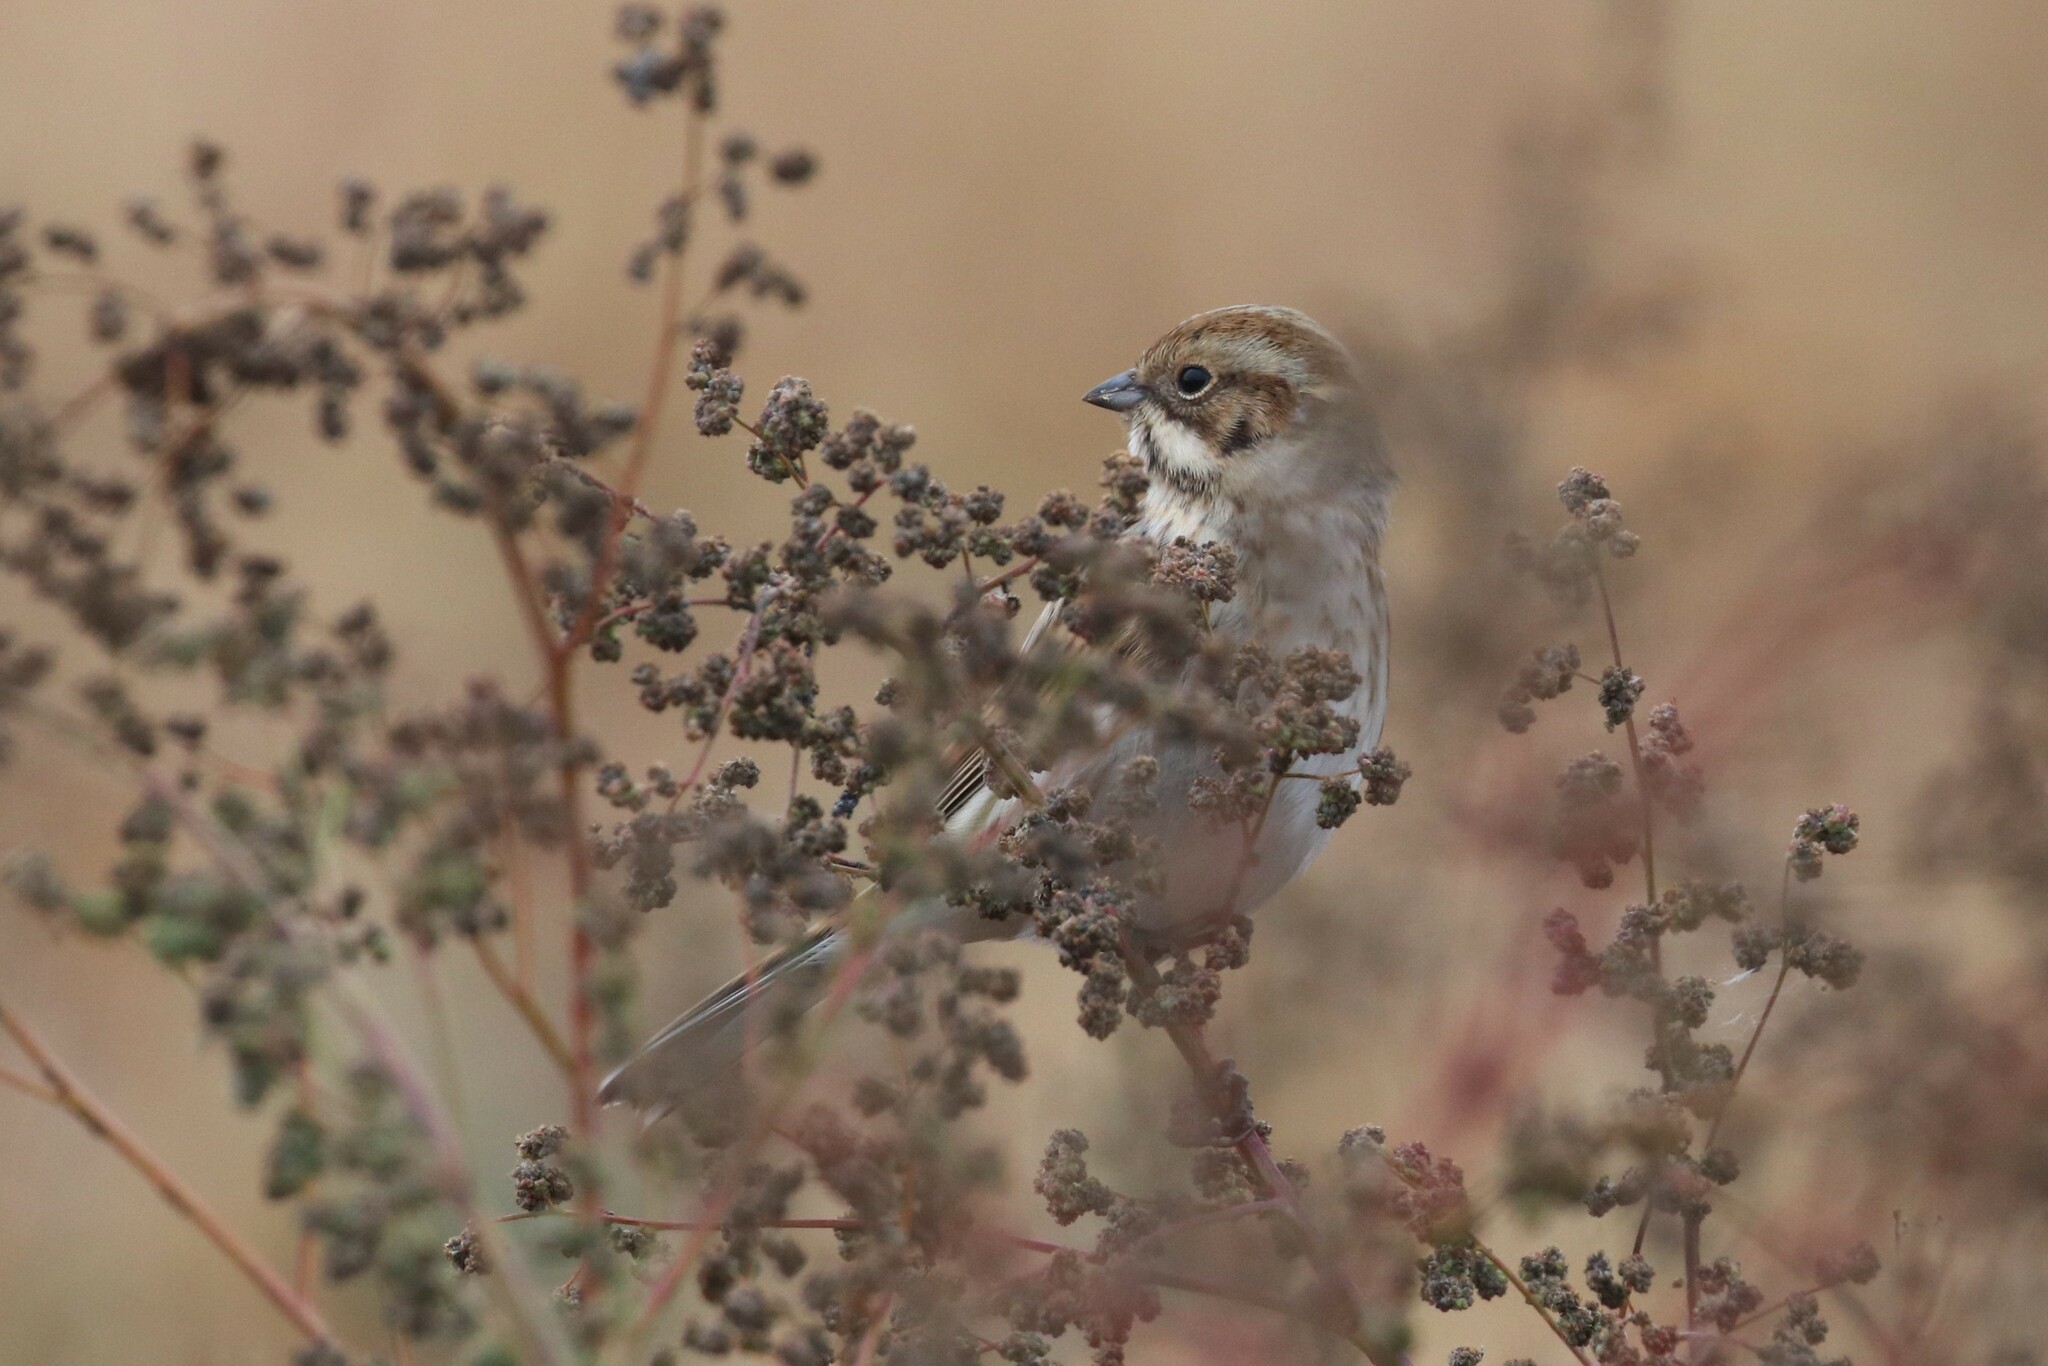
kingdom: Animalia
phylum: Chordata
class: Aves
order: Passeriformes
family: Emberizidae
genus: Emberiza
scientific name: Emberiza schoeniclus
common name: Reed bunting
